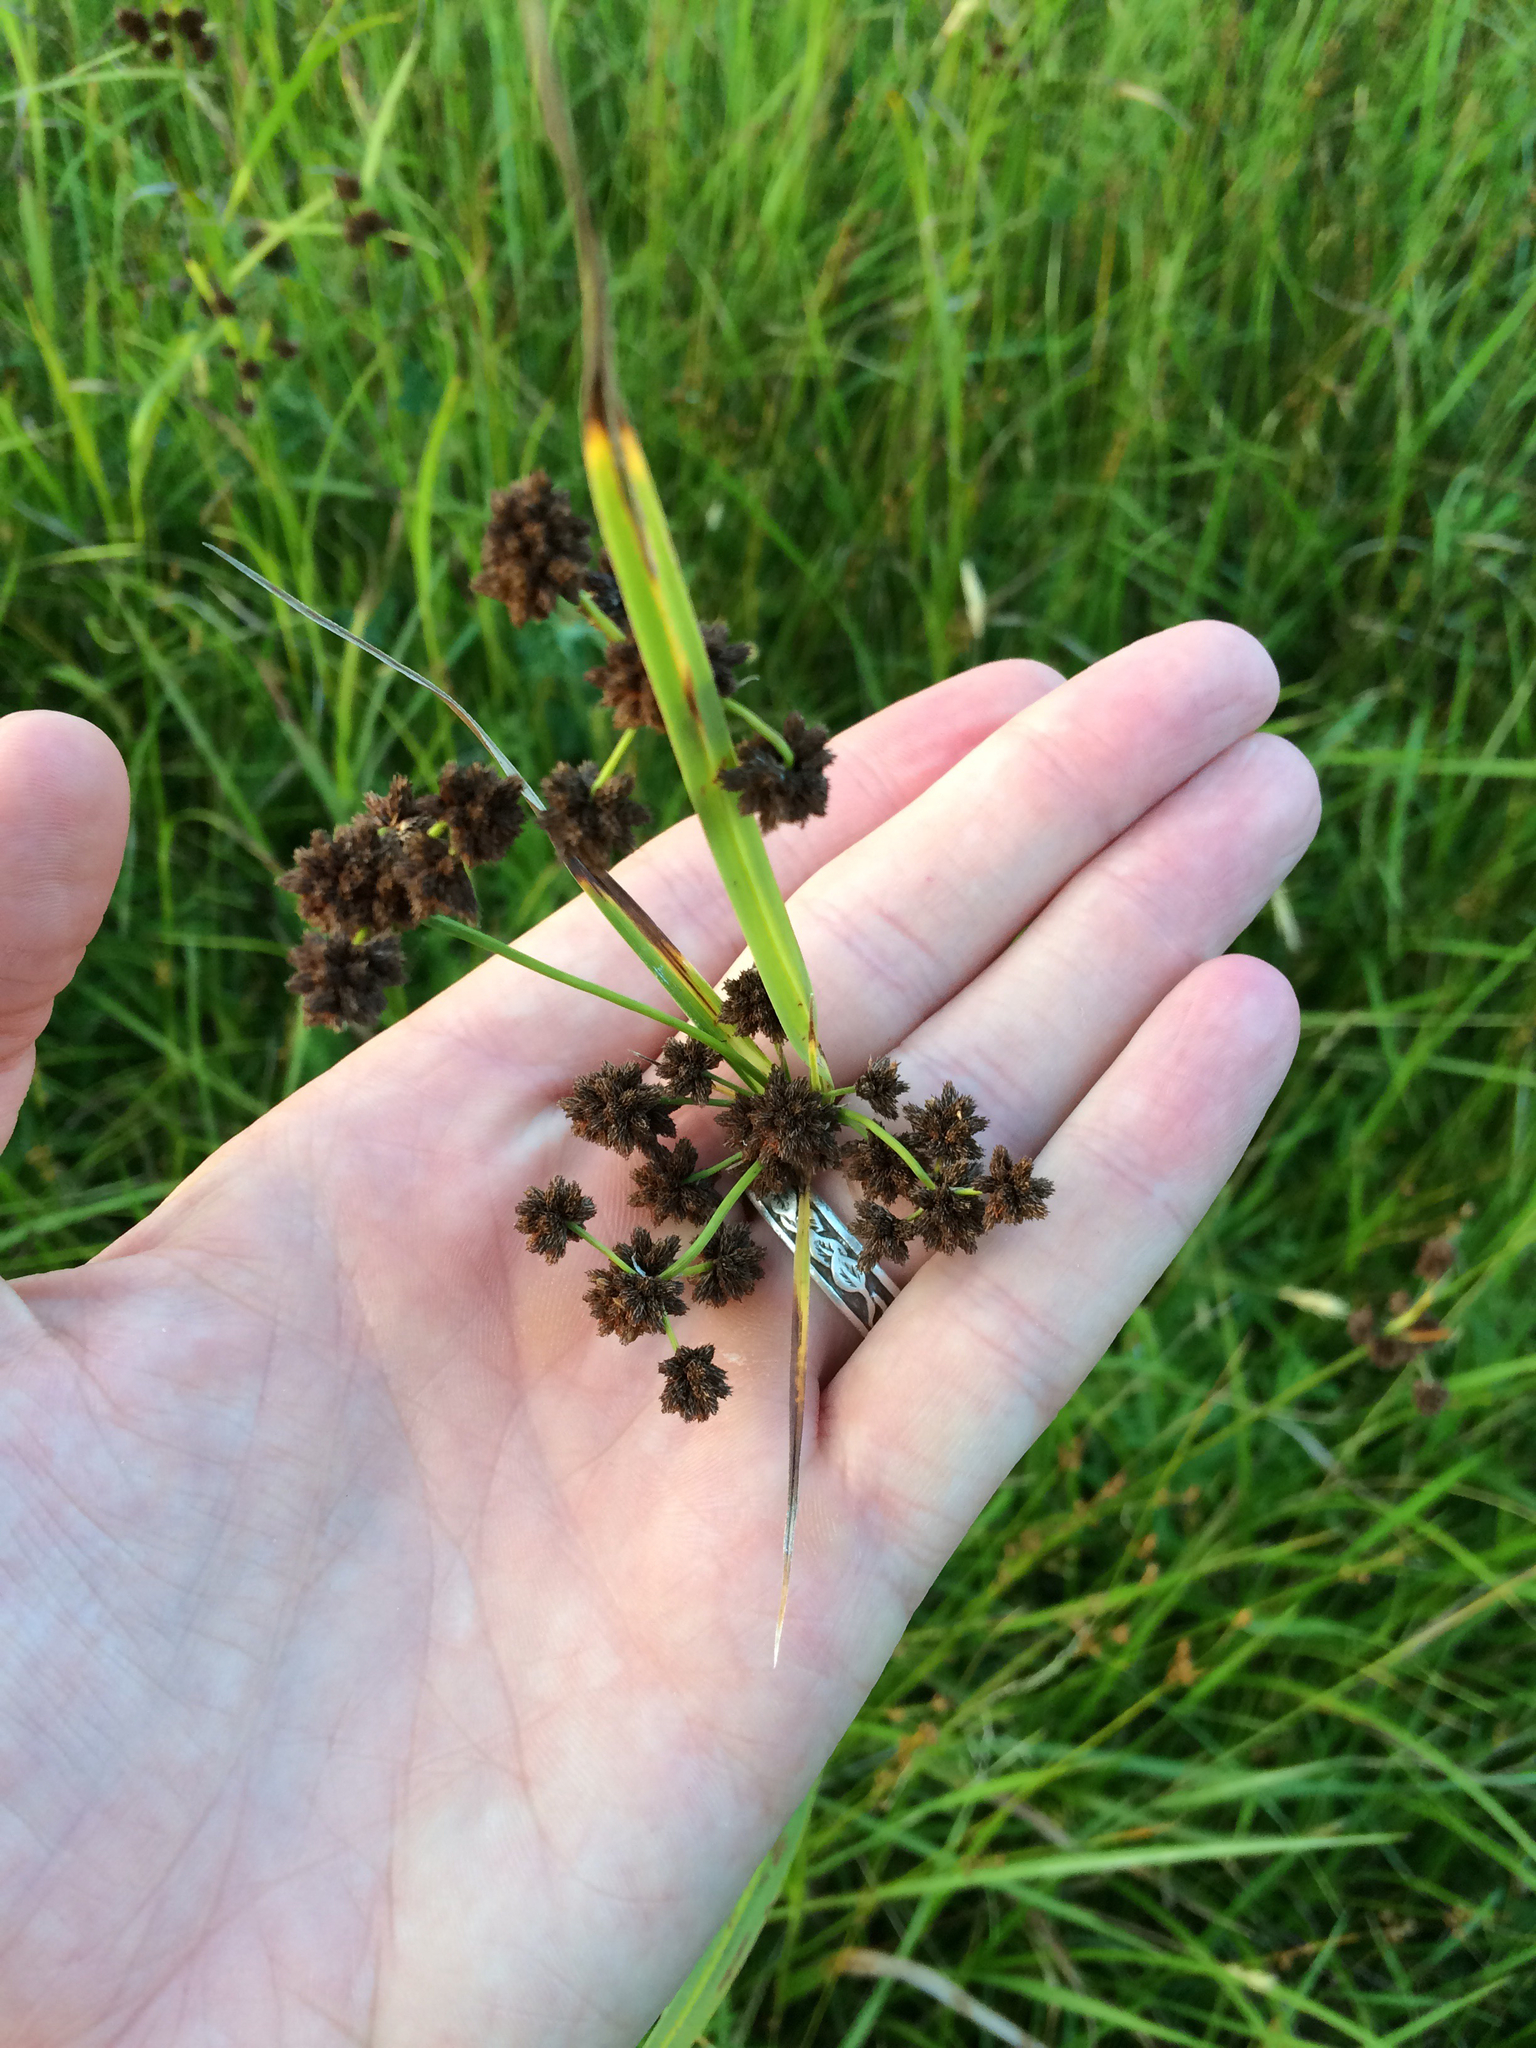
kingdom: Plantae
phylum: Tracheophyta
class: Liliopsida
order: Poales
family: Cyperaceae
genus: Scirpus
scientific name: Scirpus atrovirens
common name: Black bulrush
